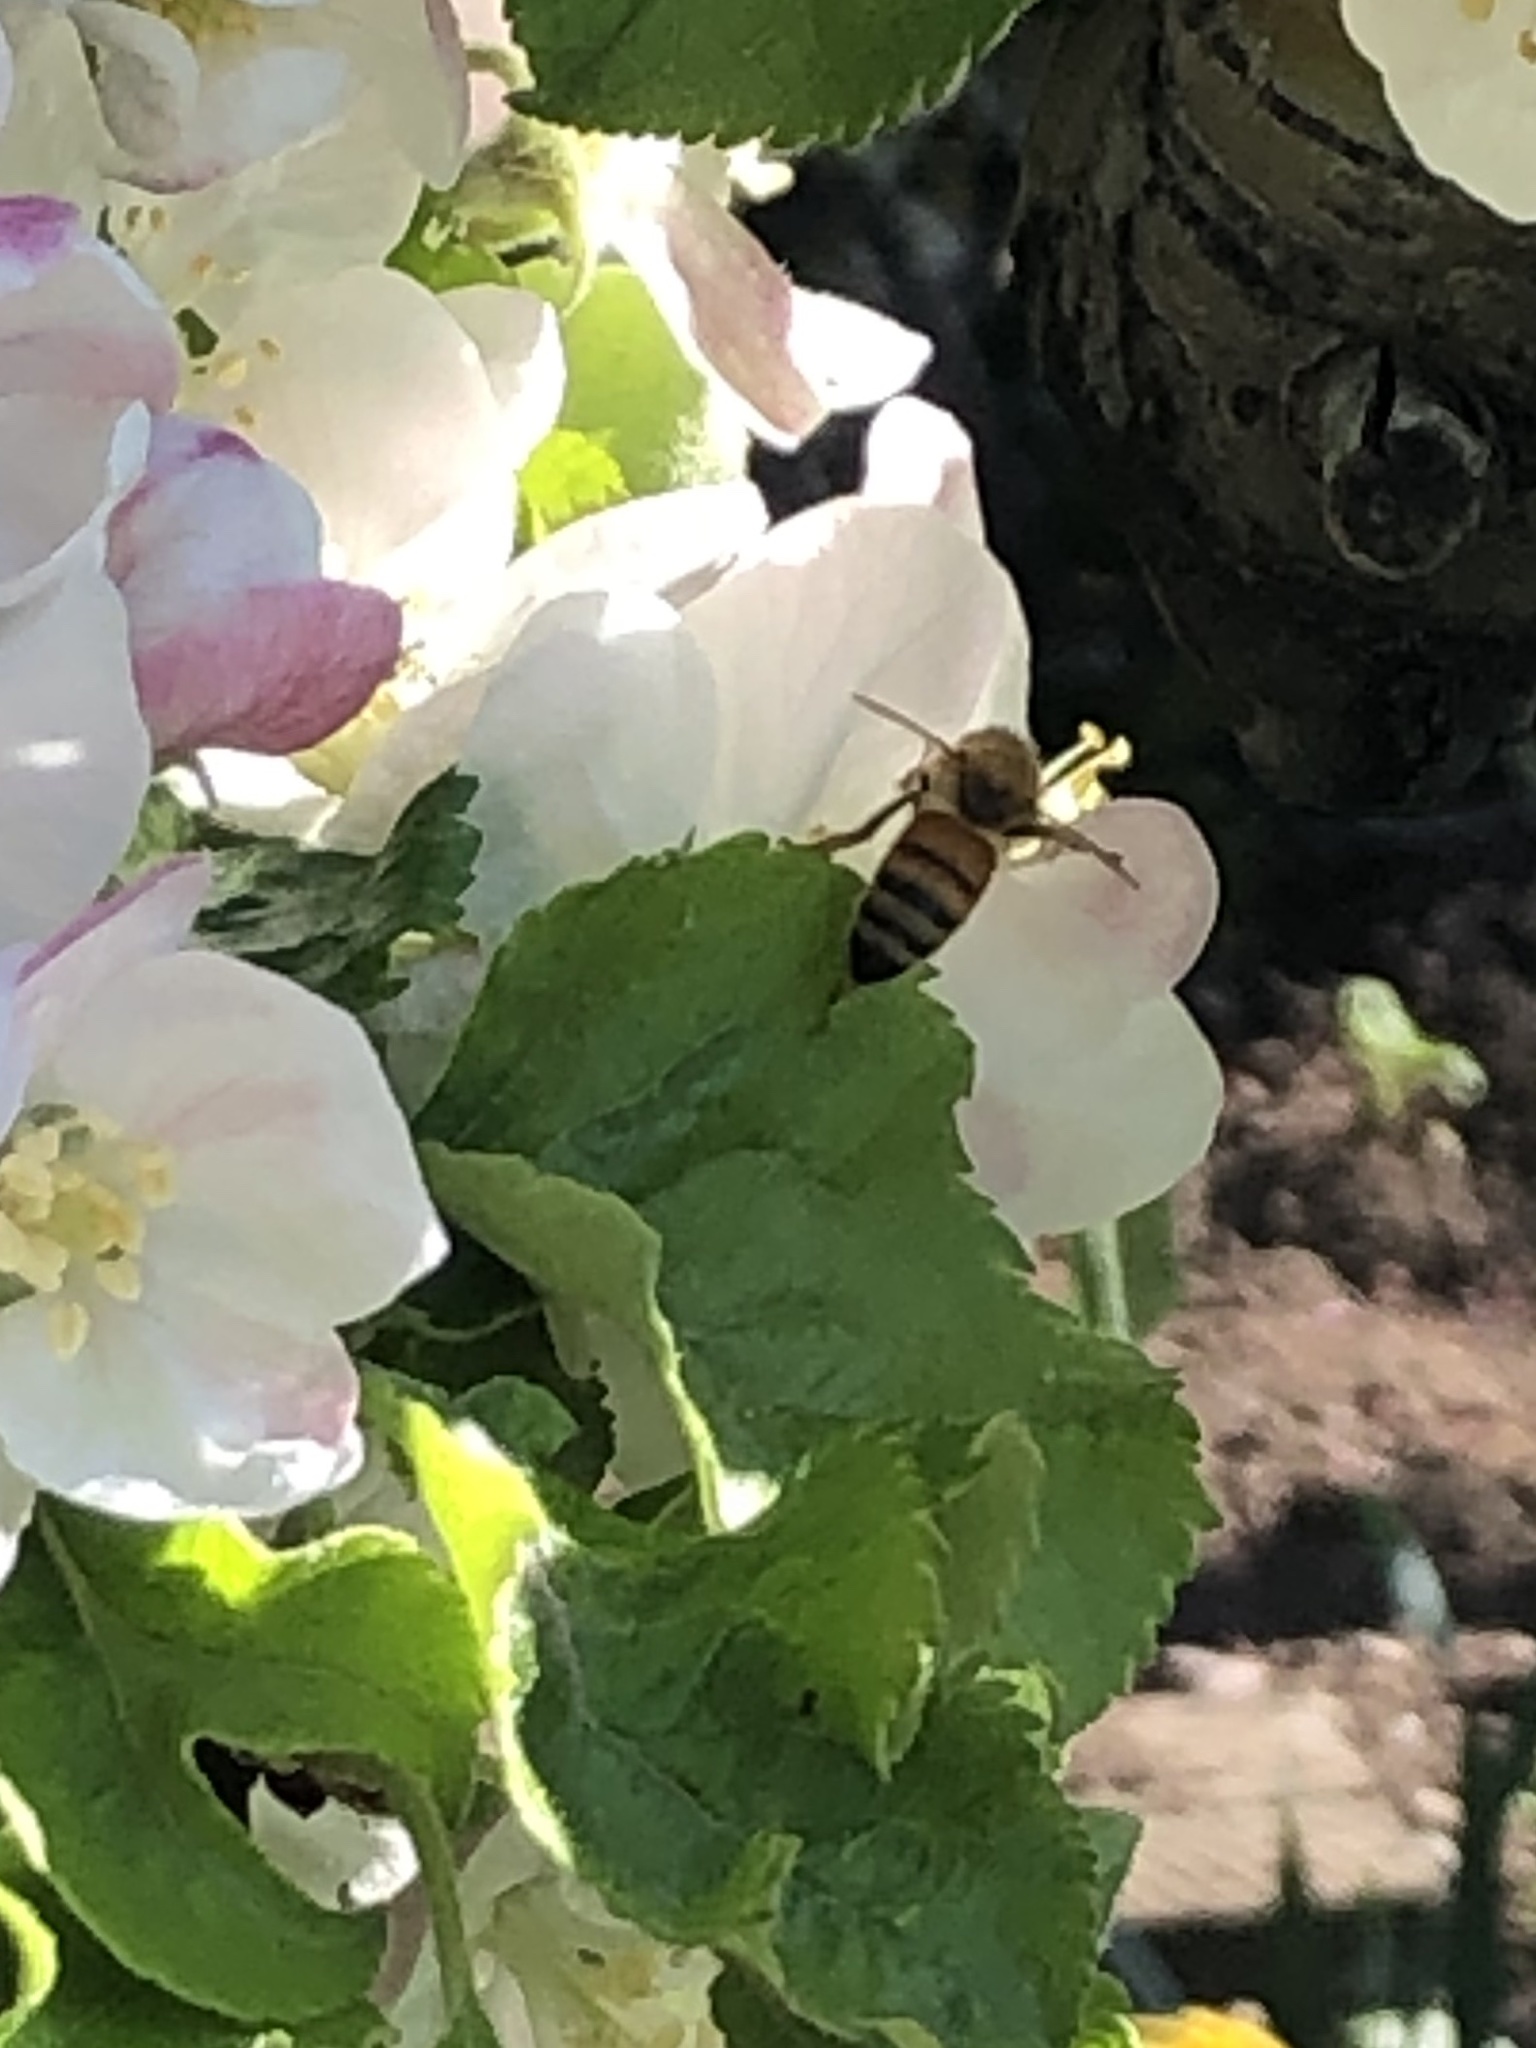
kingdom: Animalia
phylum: Arthropoda
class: Insecta
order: Hymenoptera
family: Apidae
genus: Apis
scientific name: Apis mellifera
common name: Honey bee
